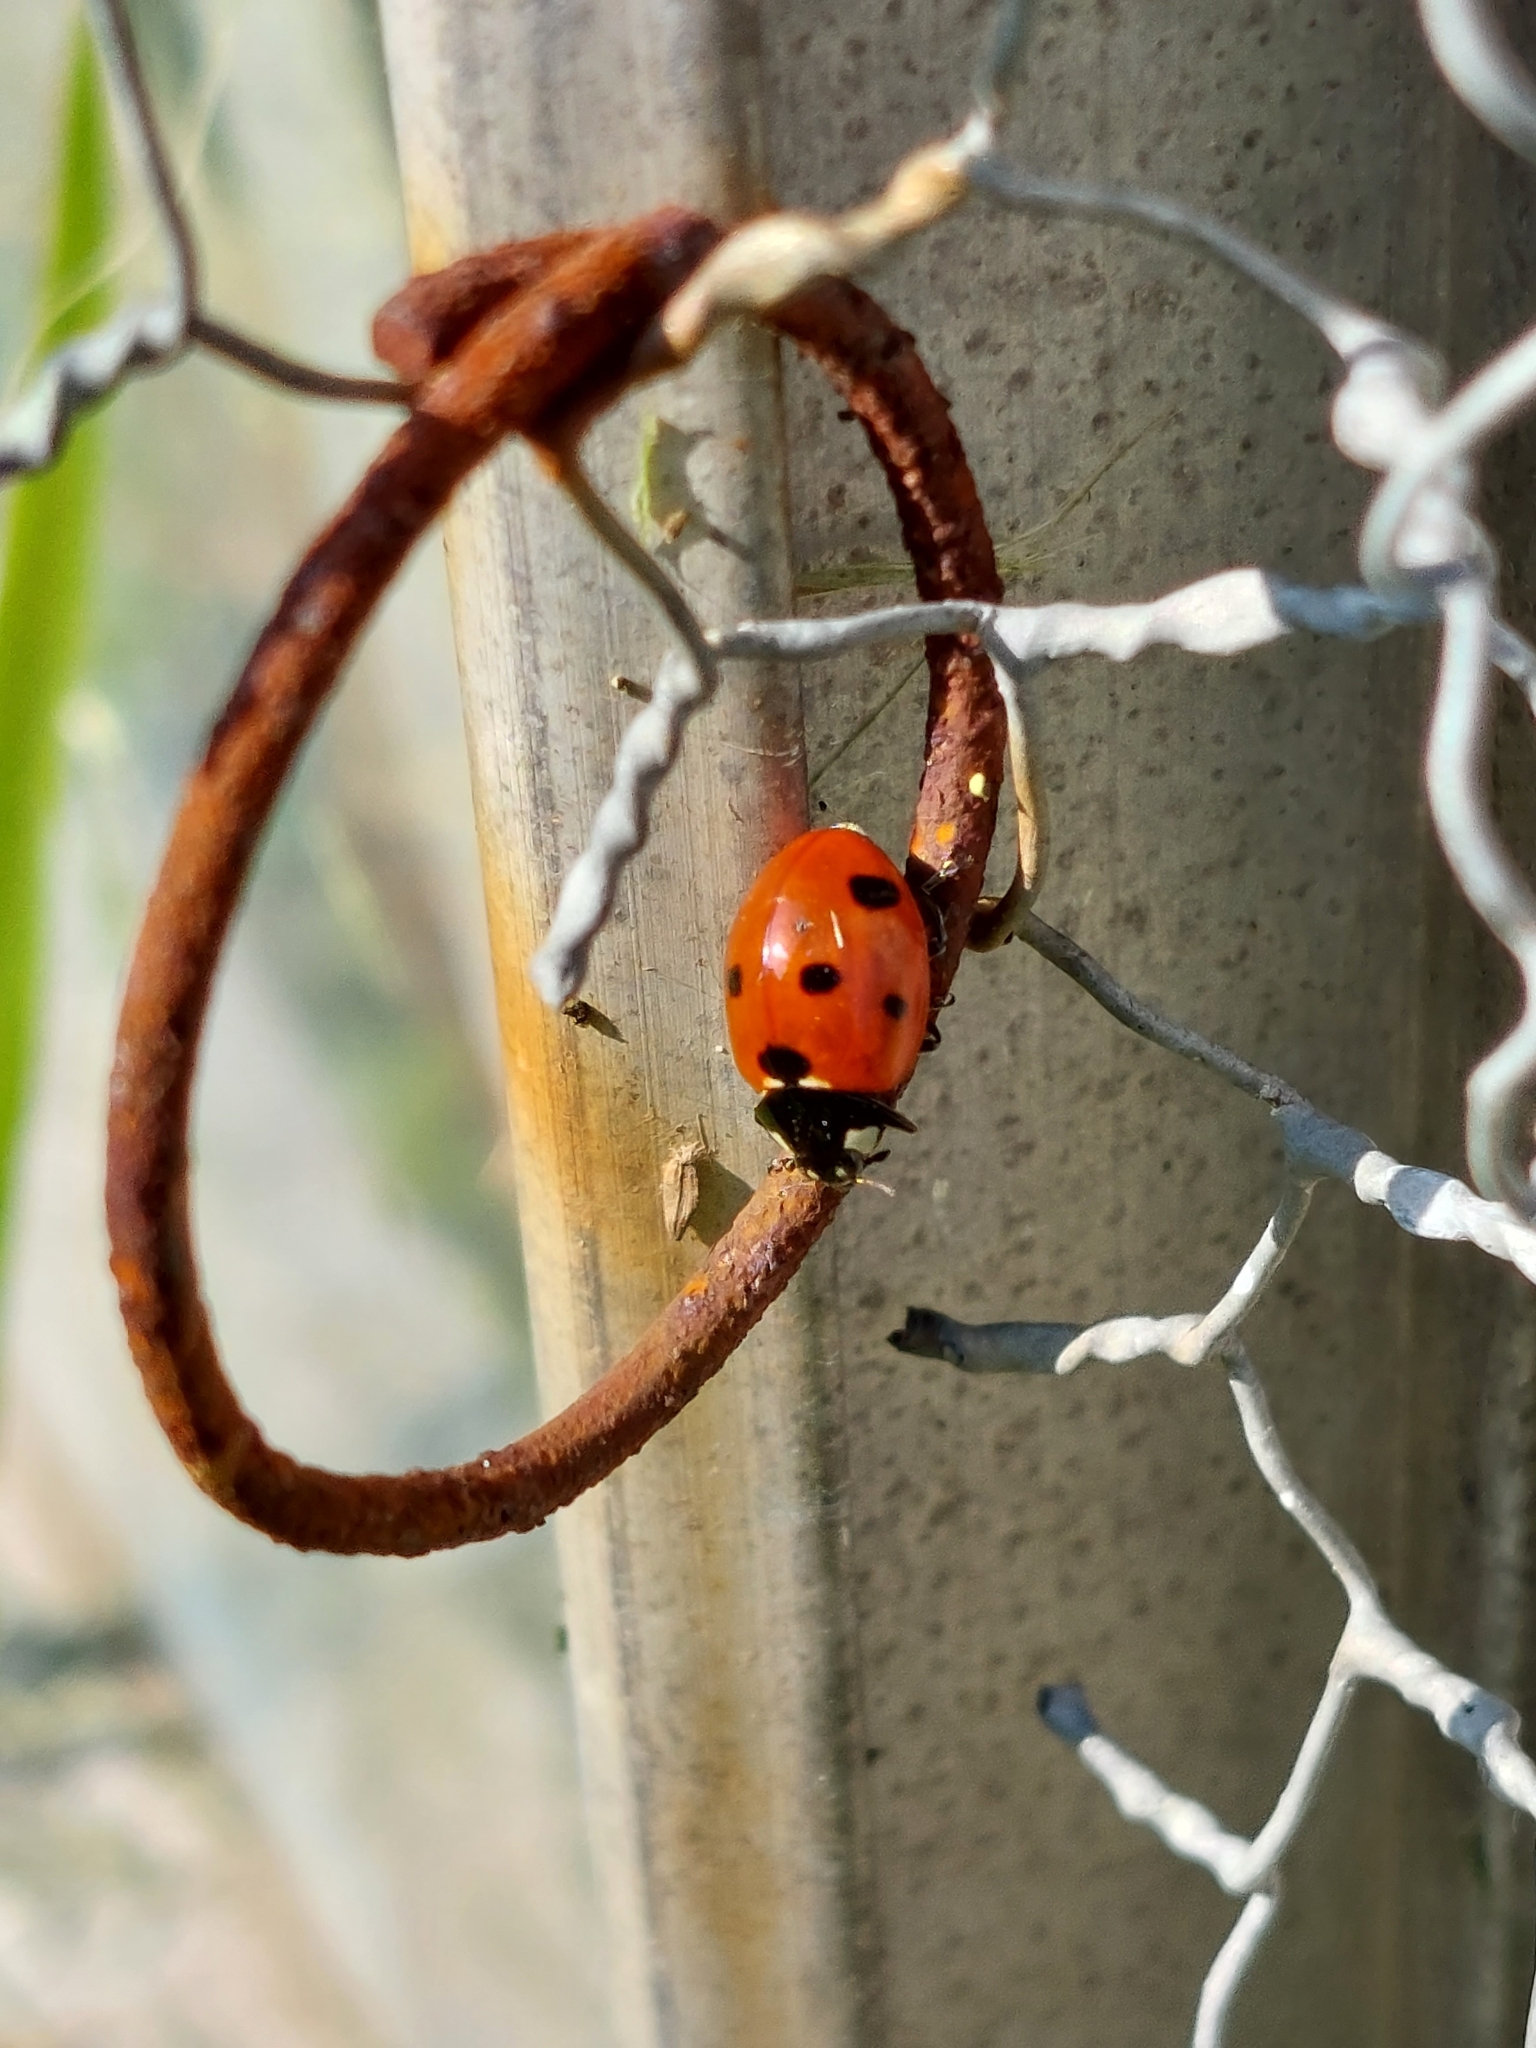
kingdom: Animalia
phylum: Arthropoda
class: Insecta
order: Coleoptera
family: Coccinellidae
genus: Coccinella
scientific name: Coccinella septempunctata
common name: Sevenspotted lady beetle
